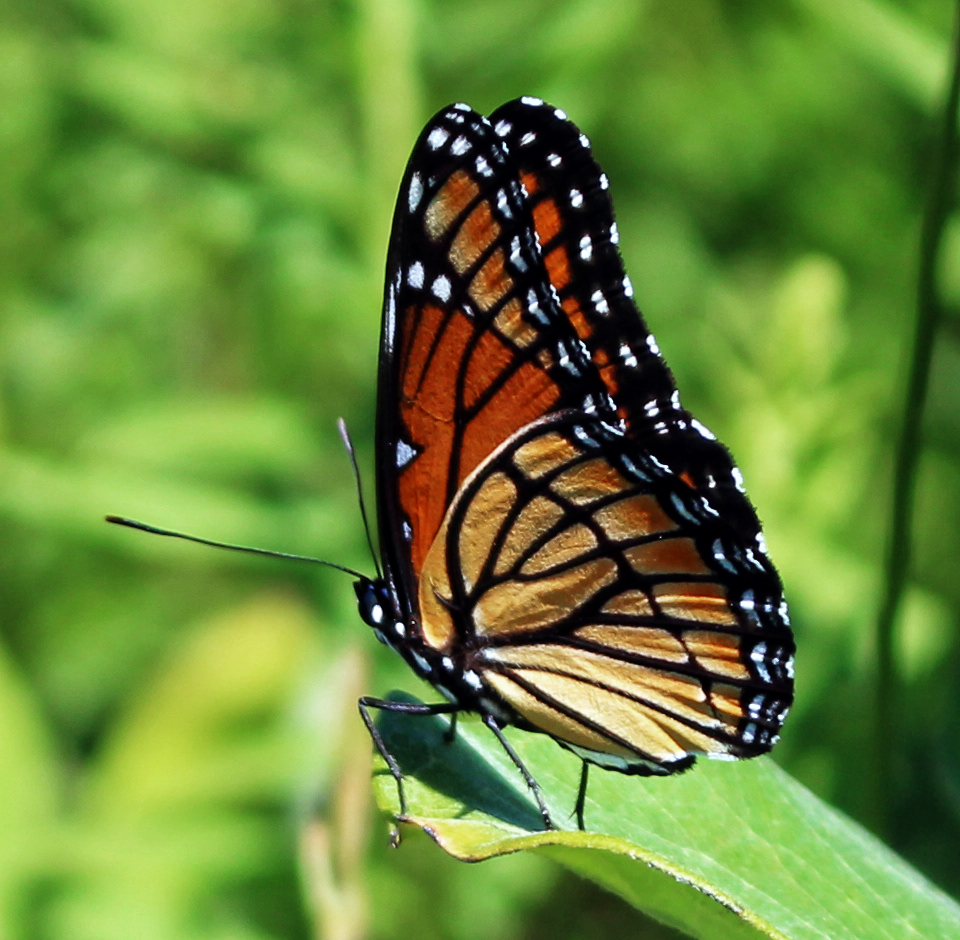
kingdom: Animalia
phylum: Arthropoda
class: Insecta
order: Lepidoptera
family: Nymphalidae
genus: Limenitis
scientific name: Limenitis archippus
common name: Viceroy
